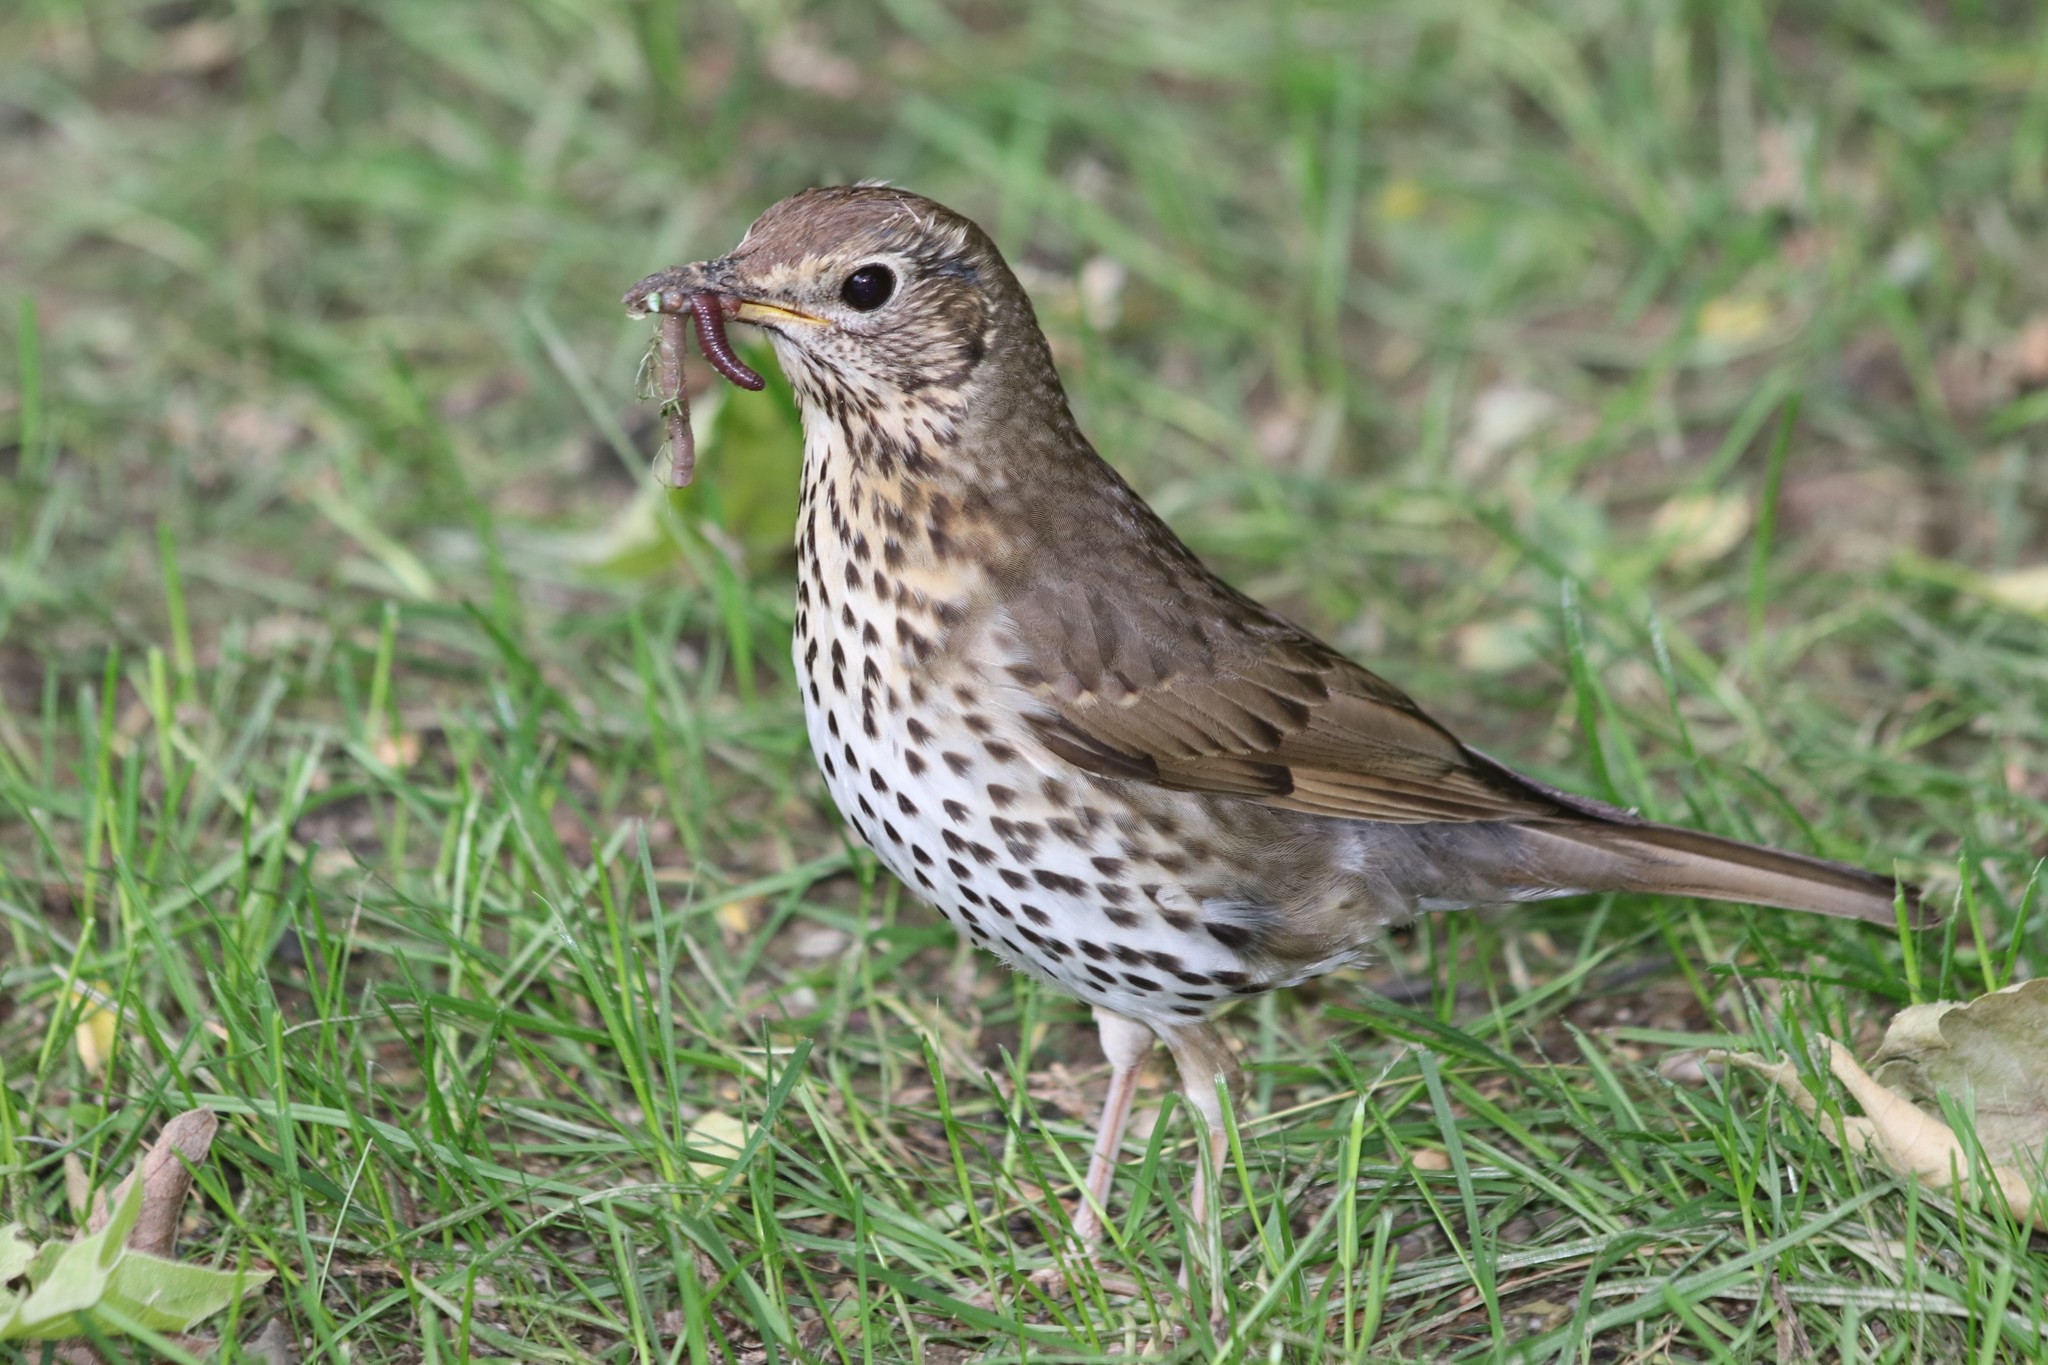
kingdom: Animalia
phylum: Chordata
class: Aves
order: Passeriformes
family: Turdidae
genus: Turdus
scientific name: Turdus philomelos
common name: Song thrush
